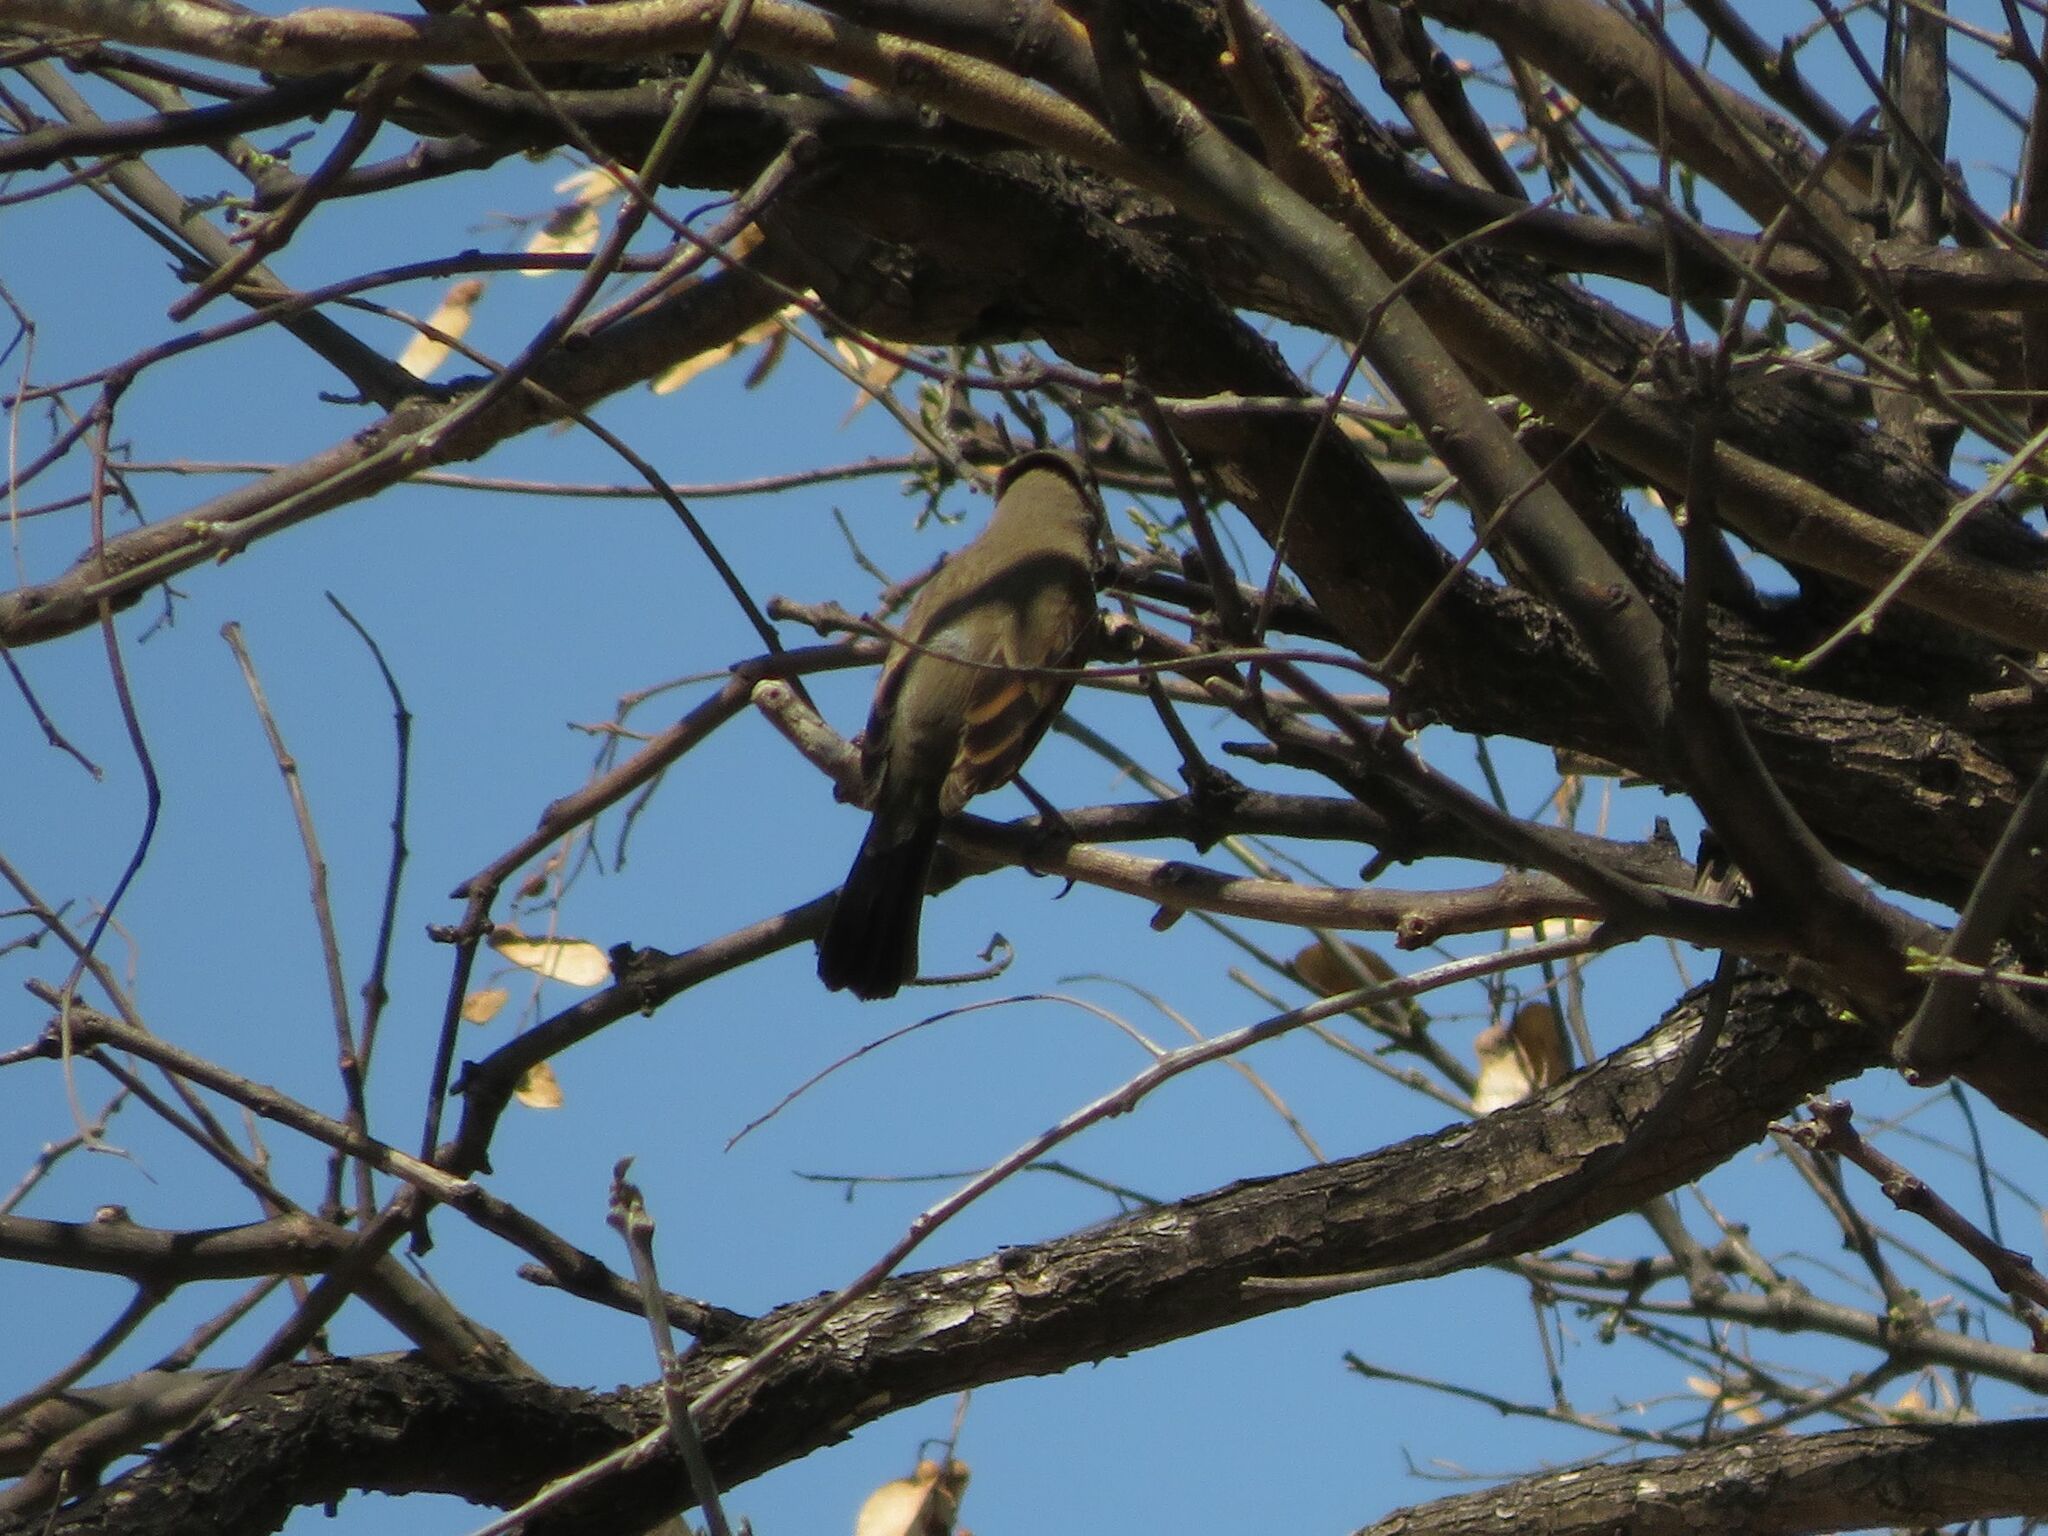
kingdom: Animalia
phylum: Chordata
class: Aves
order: Passeriformes
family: Icteridae
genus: Agelaioides
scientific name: Agelaioides badius
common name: Baywing
